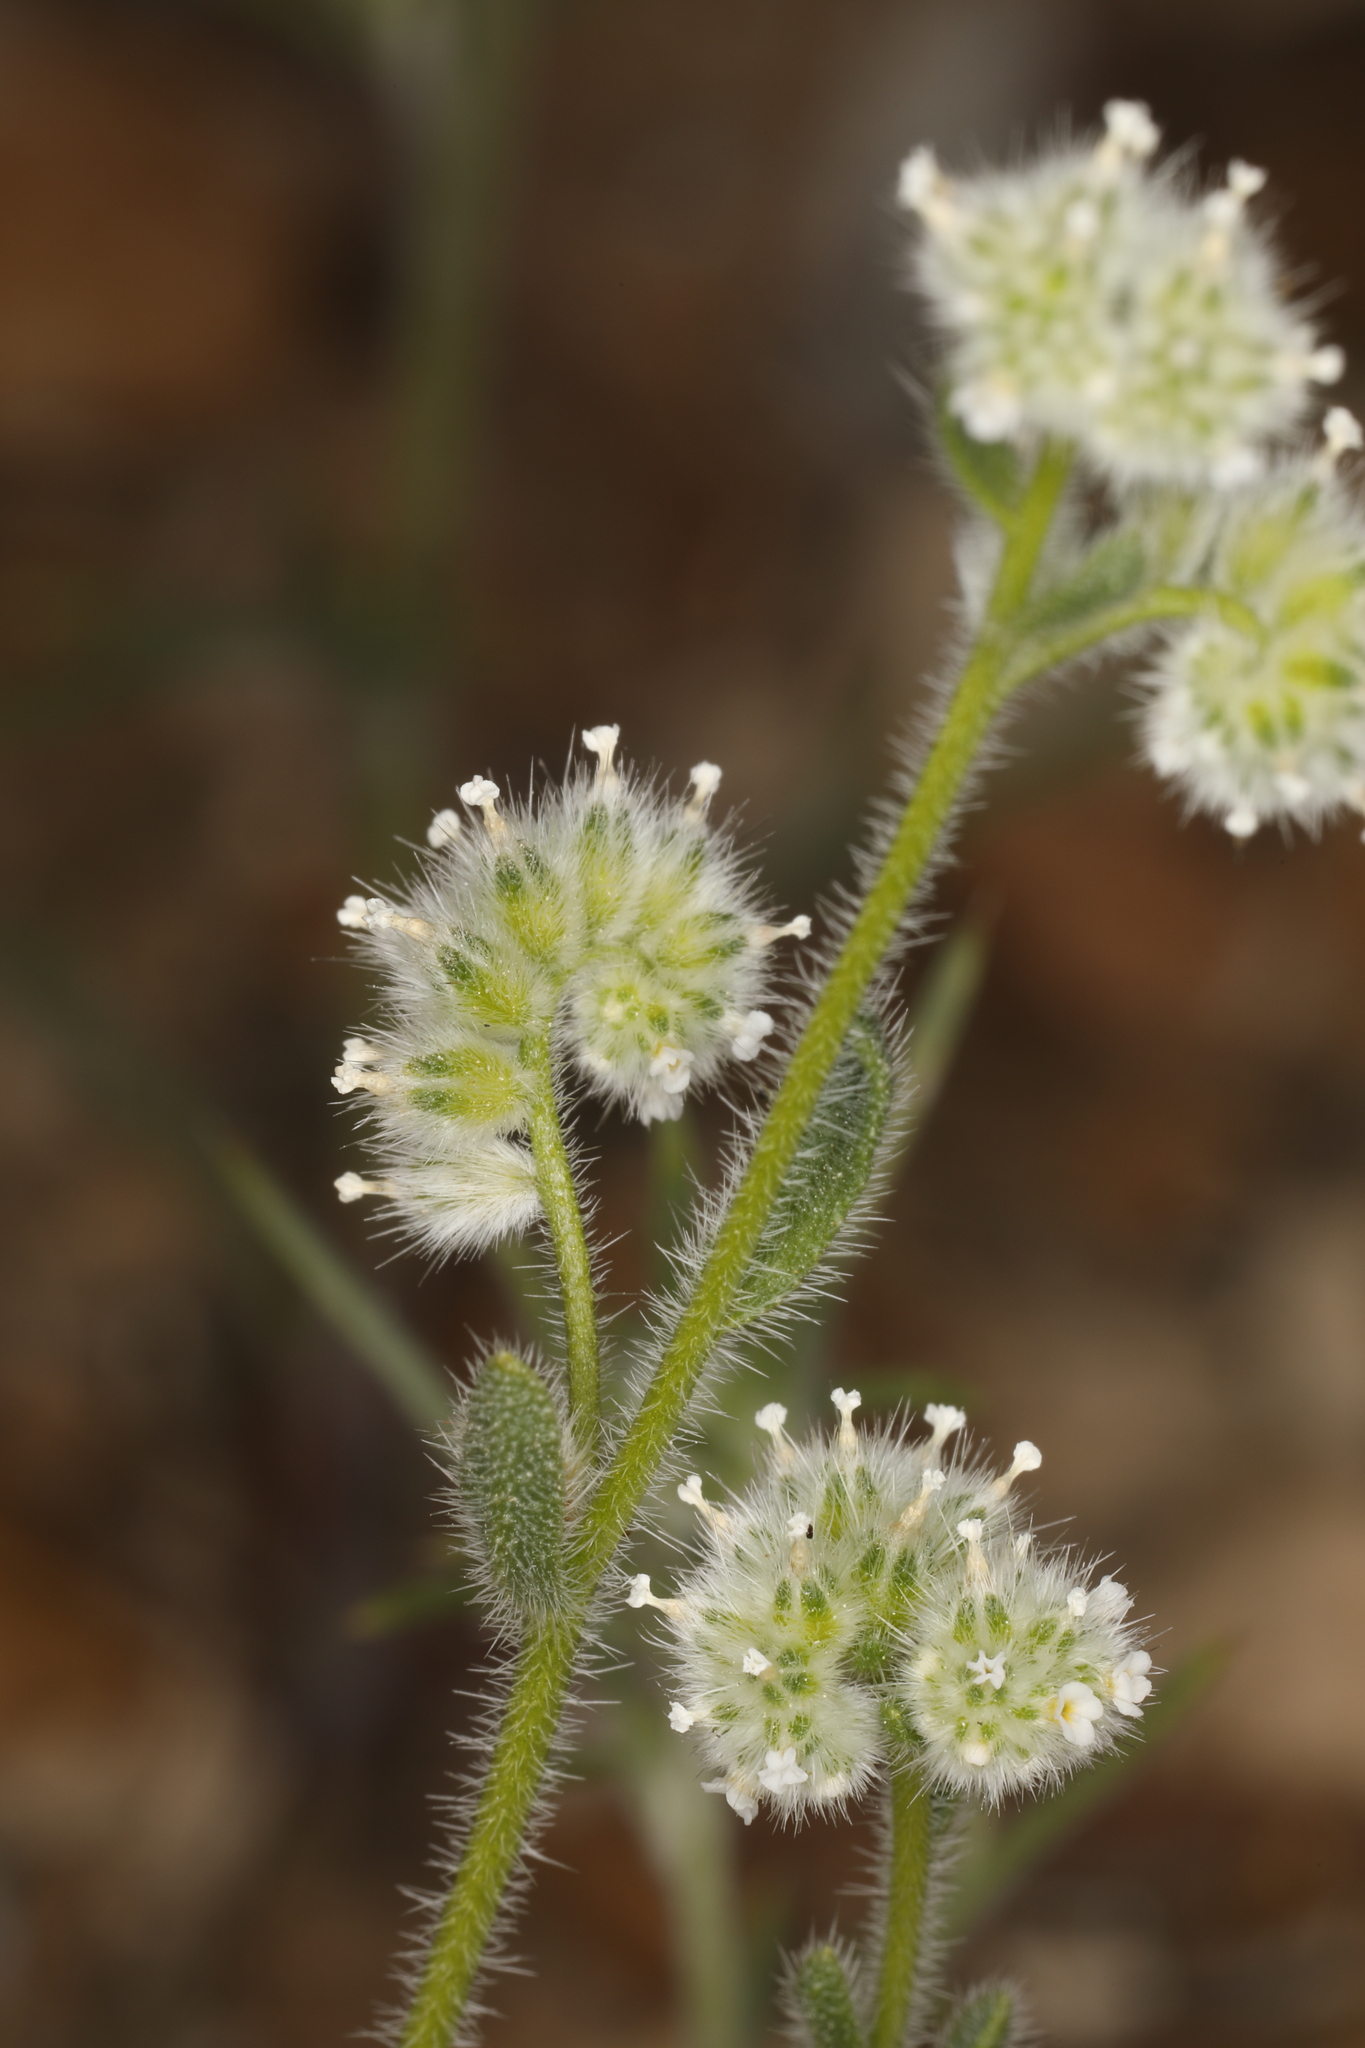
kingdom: Plantae
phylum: Tracheophyta
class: Magnoliopsida
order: Boraginales
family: Boraginaceae
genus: Cryptantha
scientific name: Cryptantha gracilis
